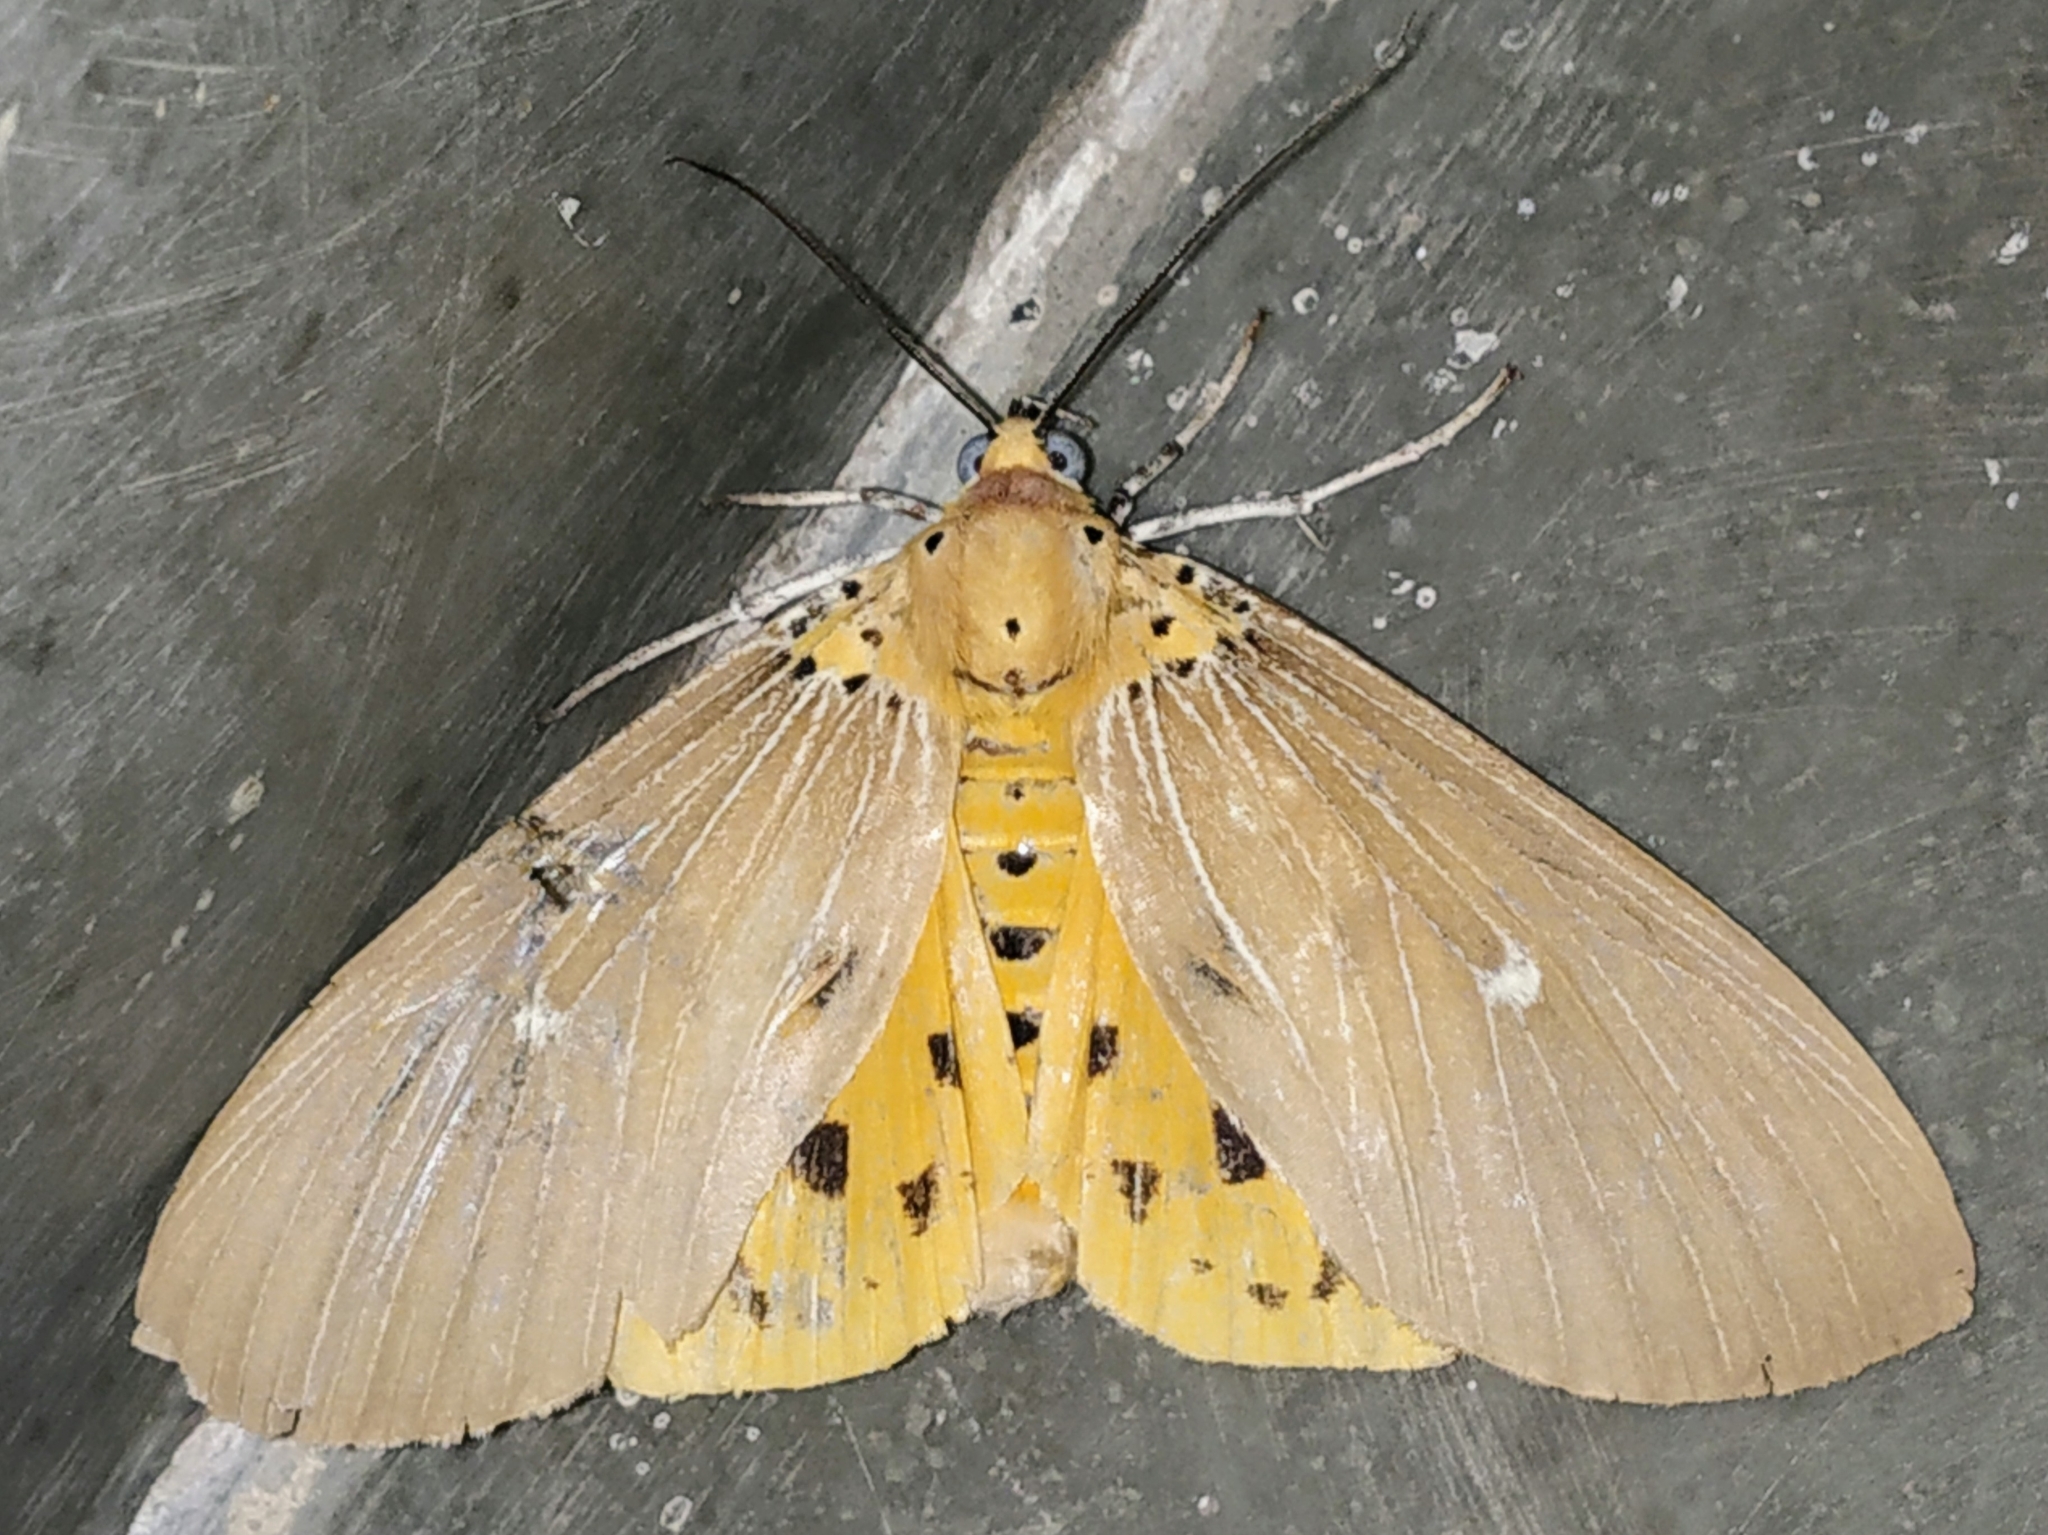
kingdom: Animalia
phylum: Arthropoda
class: Insecta
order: Lepidoptera
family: Erebidae
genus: Asota
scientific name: Asota caricae
